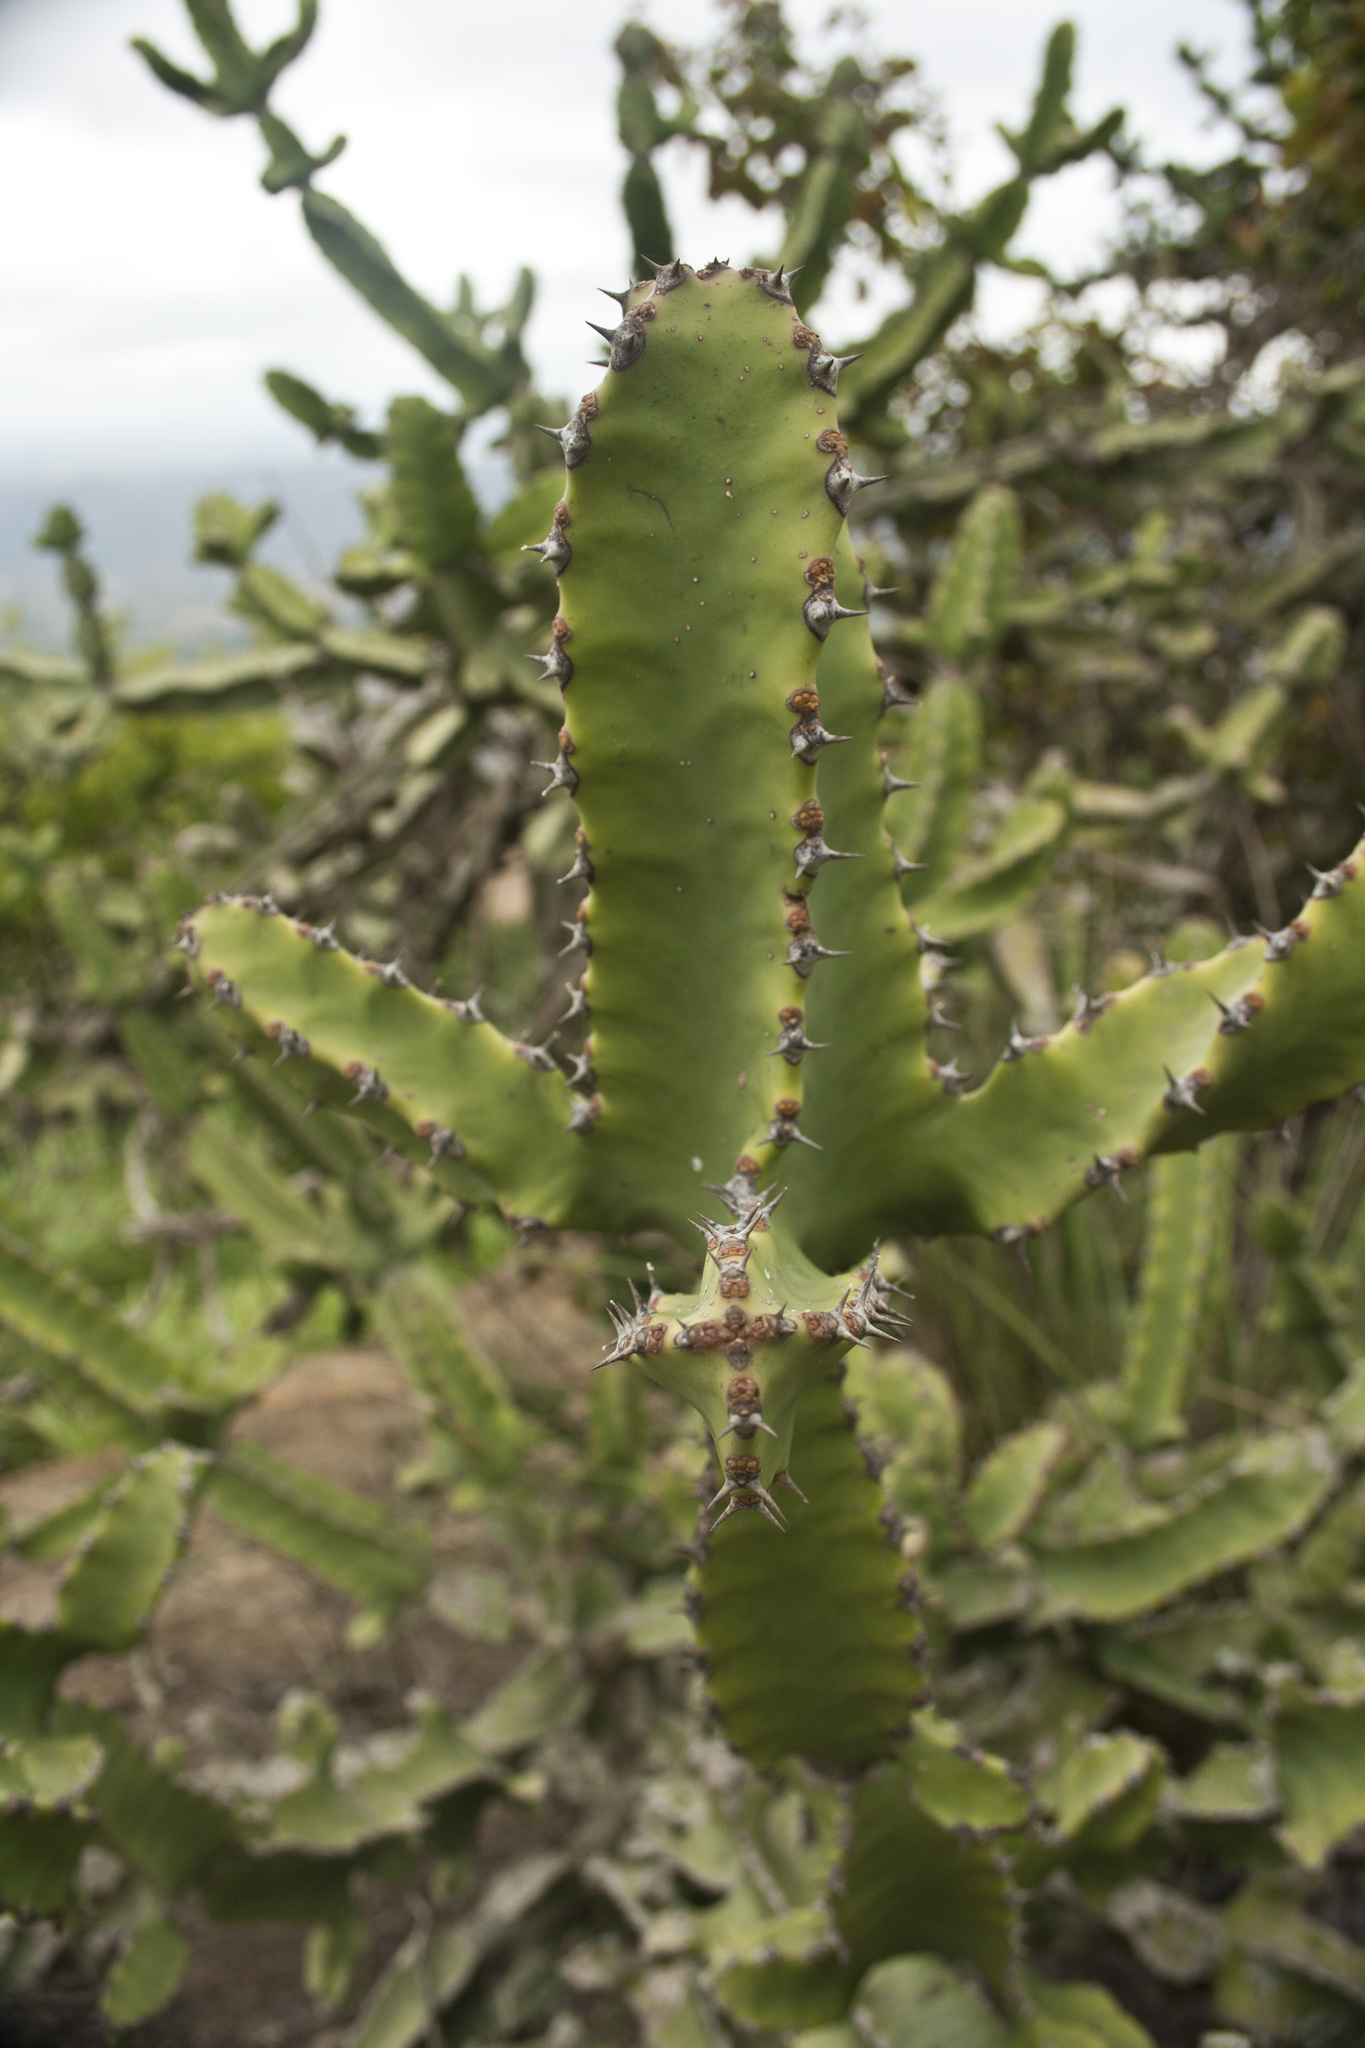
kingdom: Plantae
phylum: Tracheophyta
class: Magnoliopsida
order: Malpighiales
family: Euphorbiaceae
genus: Euphorbia
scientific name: Euphorbia tortilis
